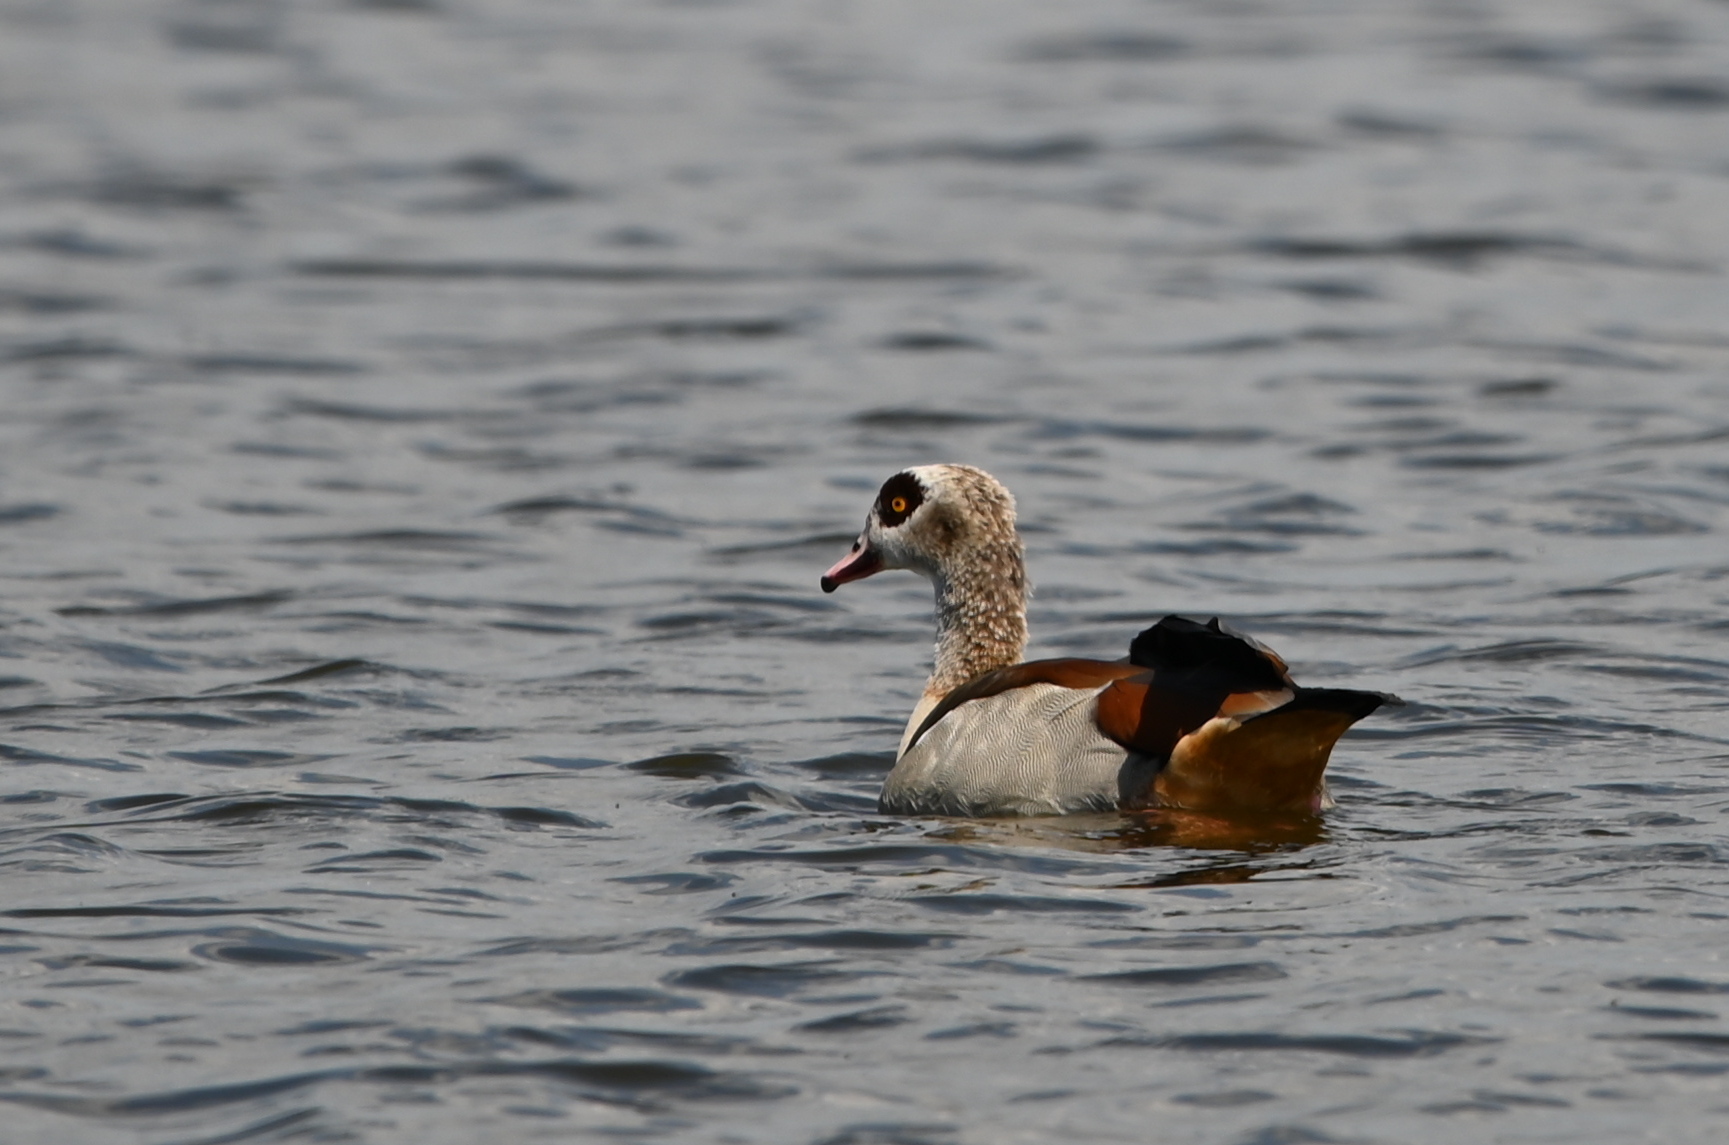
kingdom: Animalia
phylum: Chordata
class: Aves
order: Anseriformes
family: Anatidae
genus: Alopochen
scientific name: Alopochen aegyptiaca
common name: Egyptian goose
